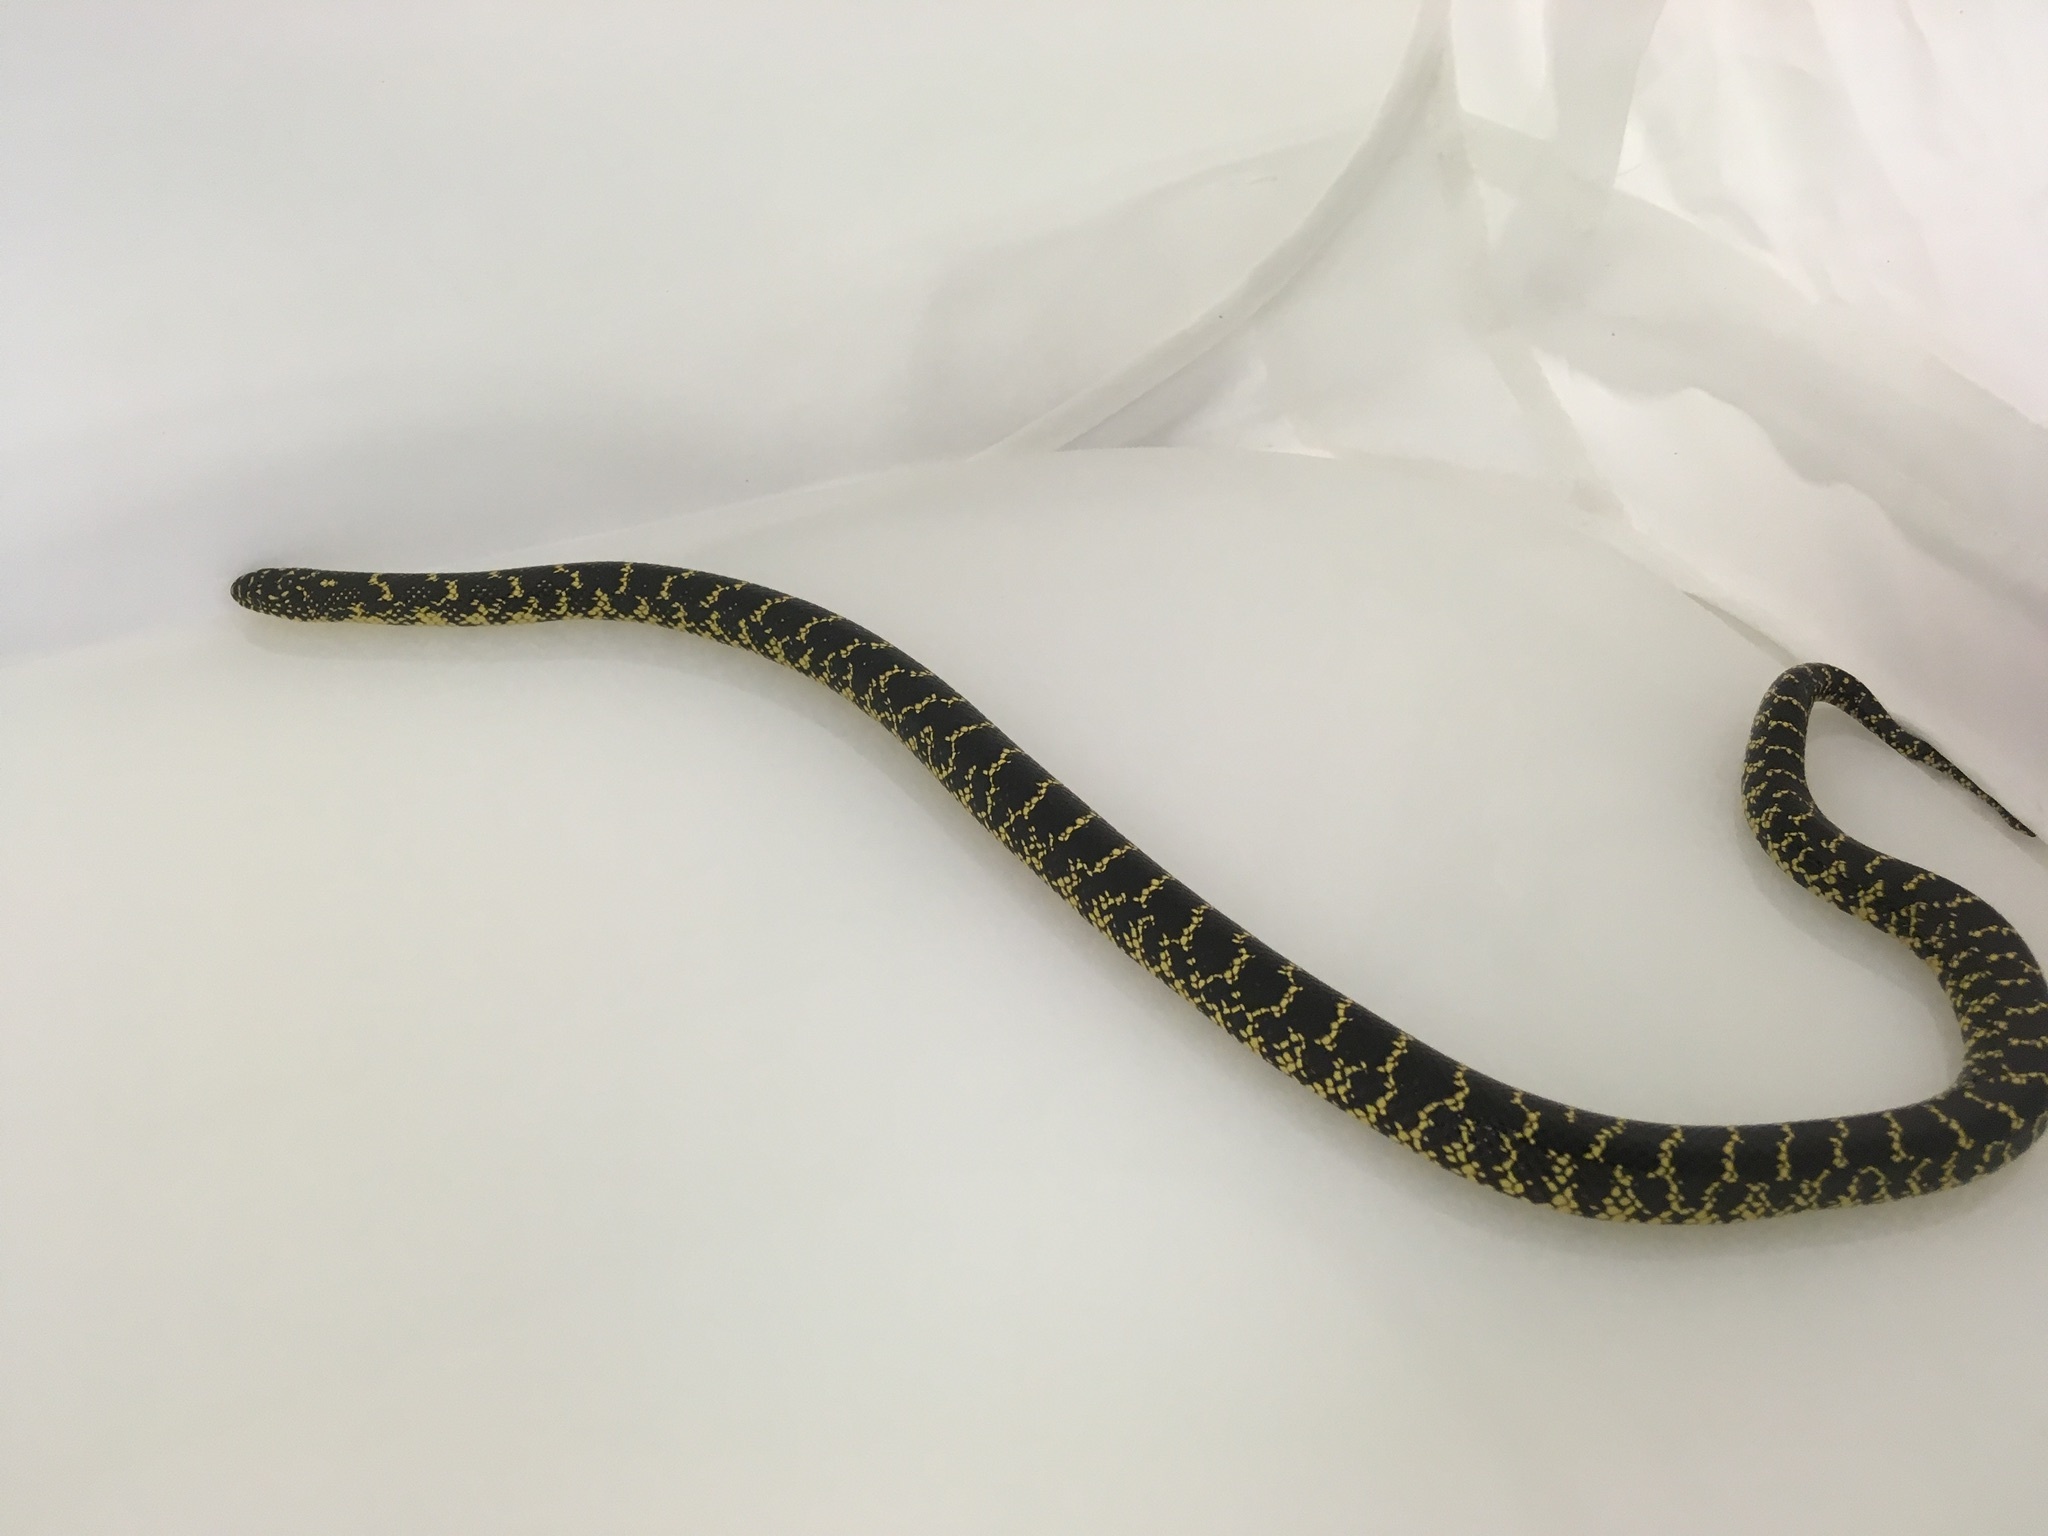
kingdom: Animalia
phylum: Chordata
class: Squamata
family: Colubridae
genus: Lampropeltis
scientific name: Lampropeltis holbrooki
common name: Speckled kingsnake
